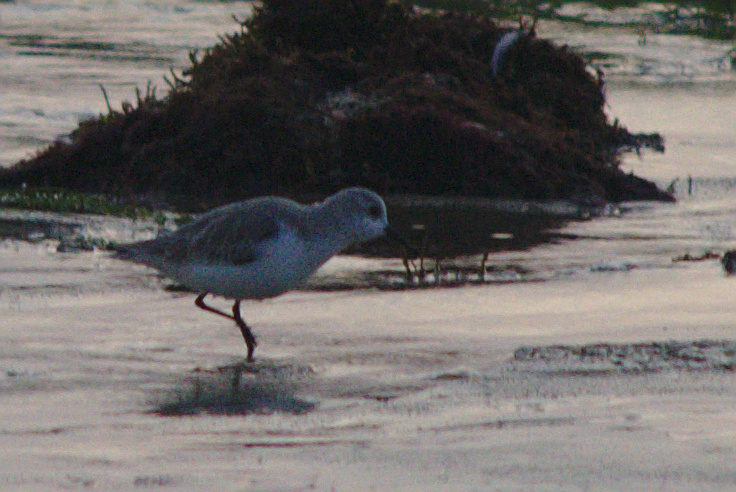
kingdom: Animalia
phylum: Chordata
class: Aves
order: Charadriiformes
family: Scolopacidae
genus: Calidris
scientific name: Calidris alba
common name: Sanderling
